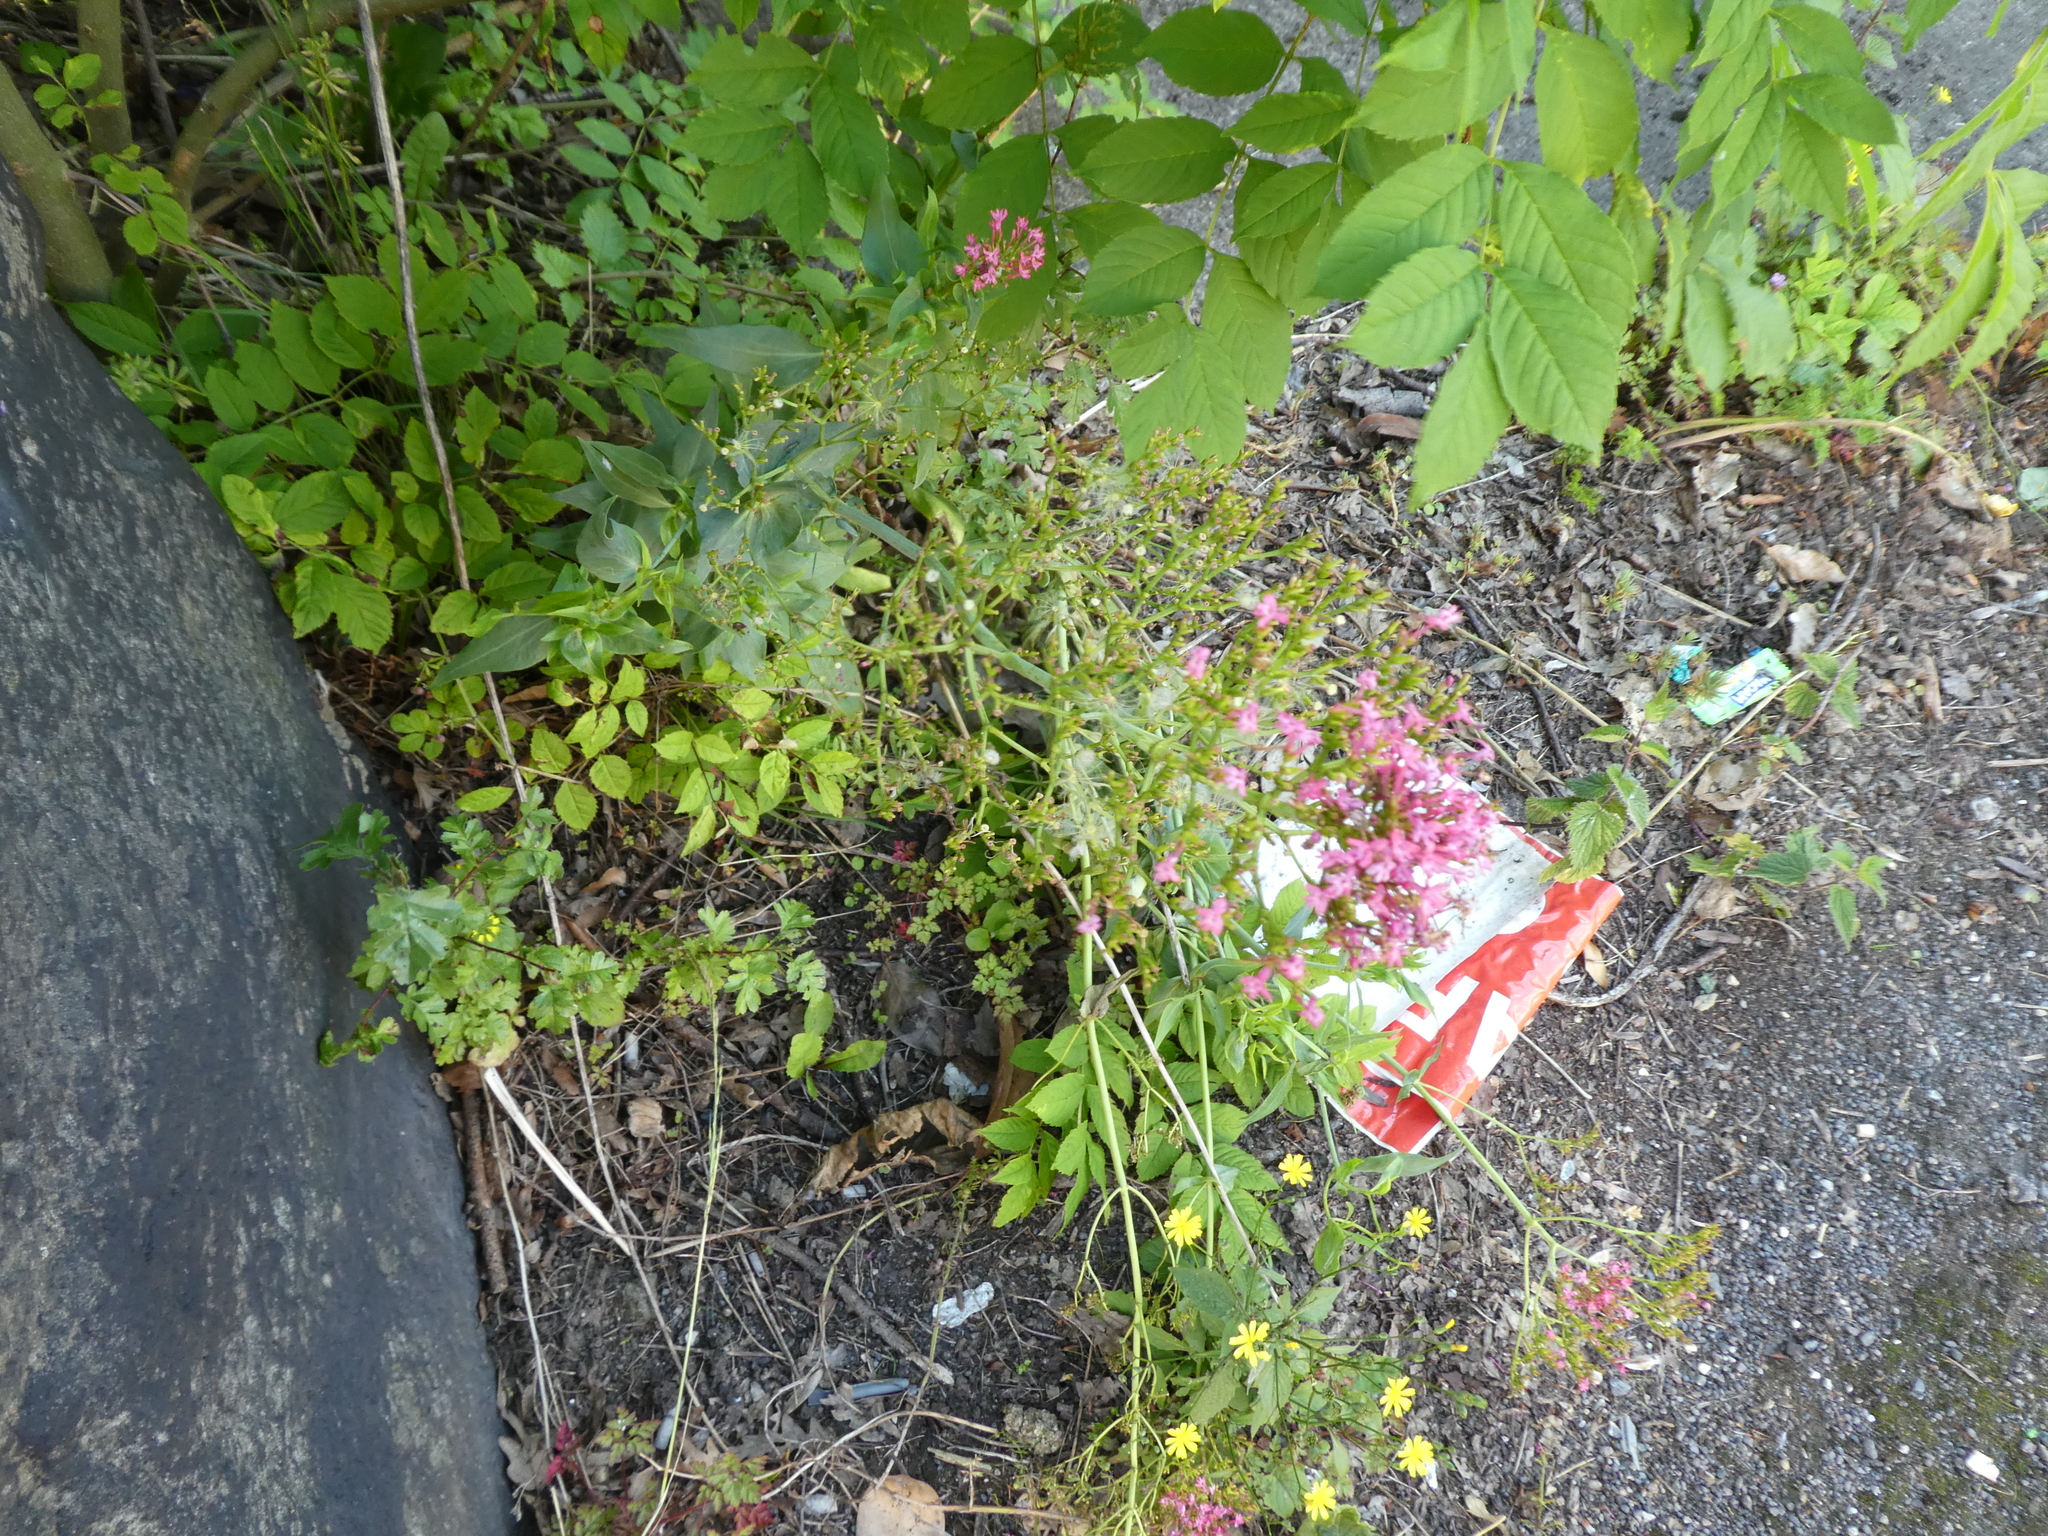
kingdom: Plantae
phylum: Tracheophyta
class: Magnoliopsida
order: Dipsacales
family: Caprifoliaceae
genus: Centranthus
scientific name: Centranthus ruber
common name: Red valerian
